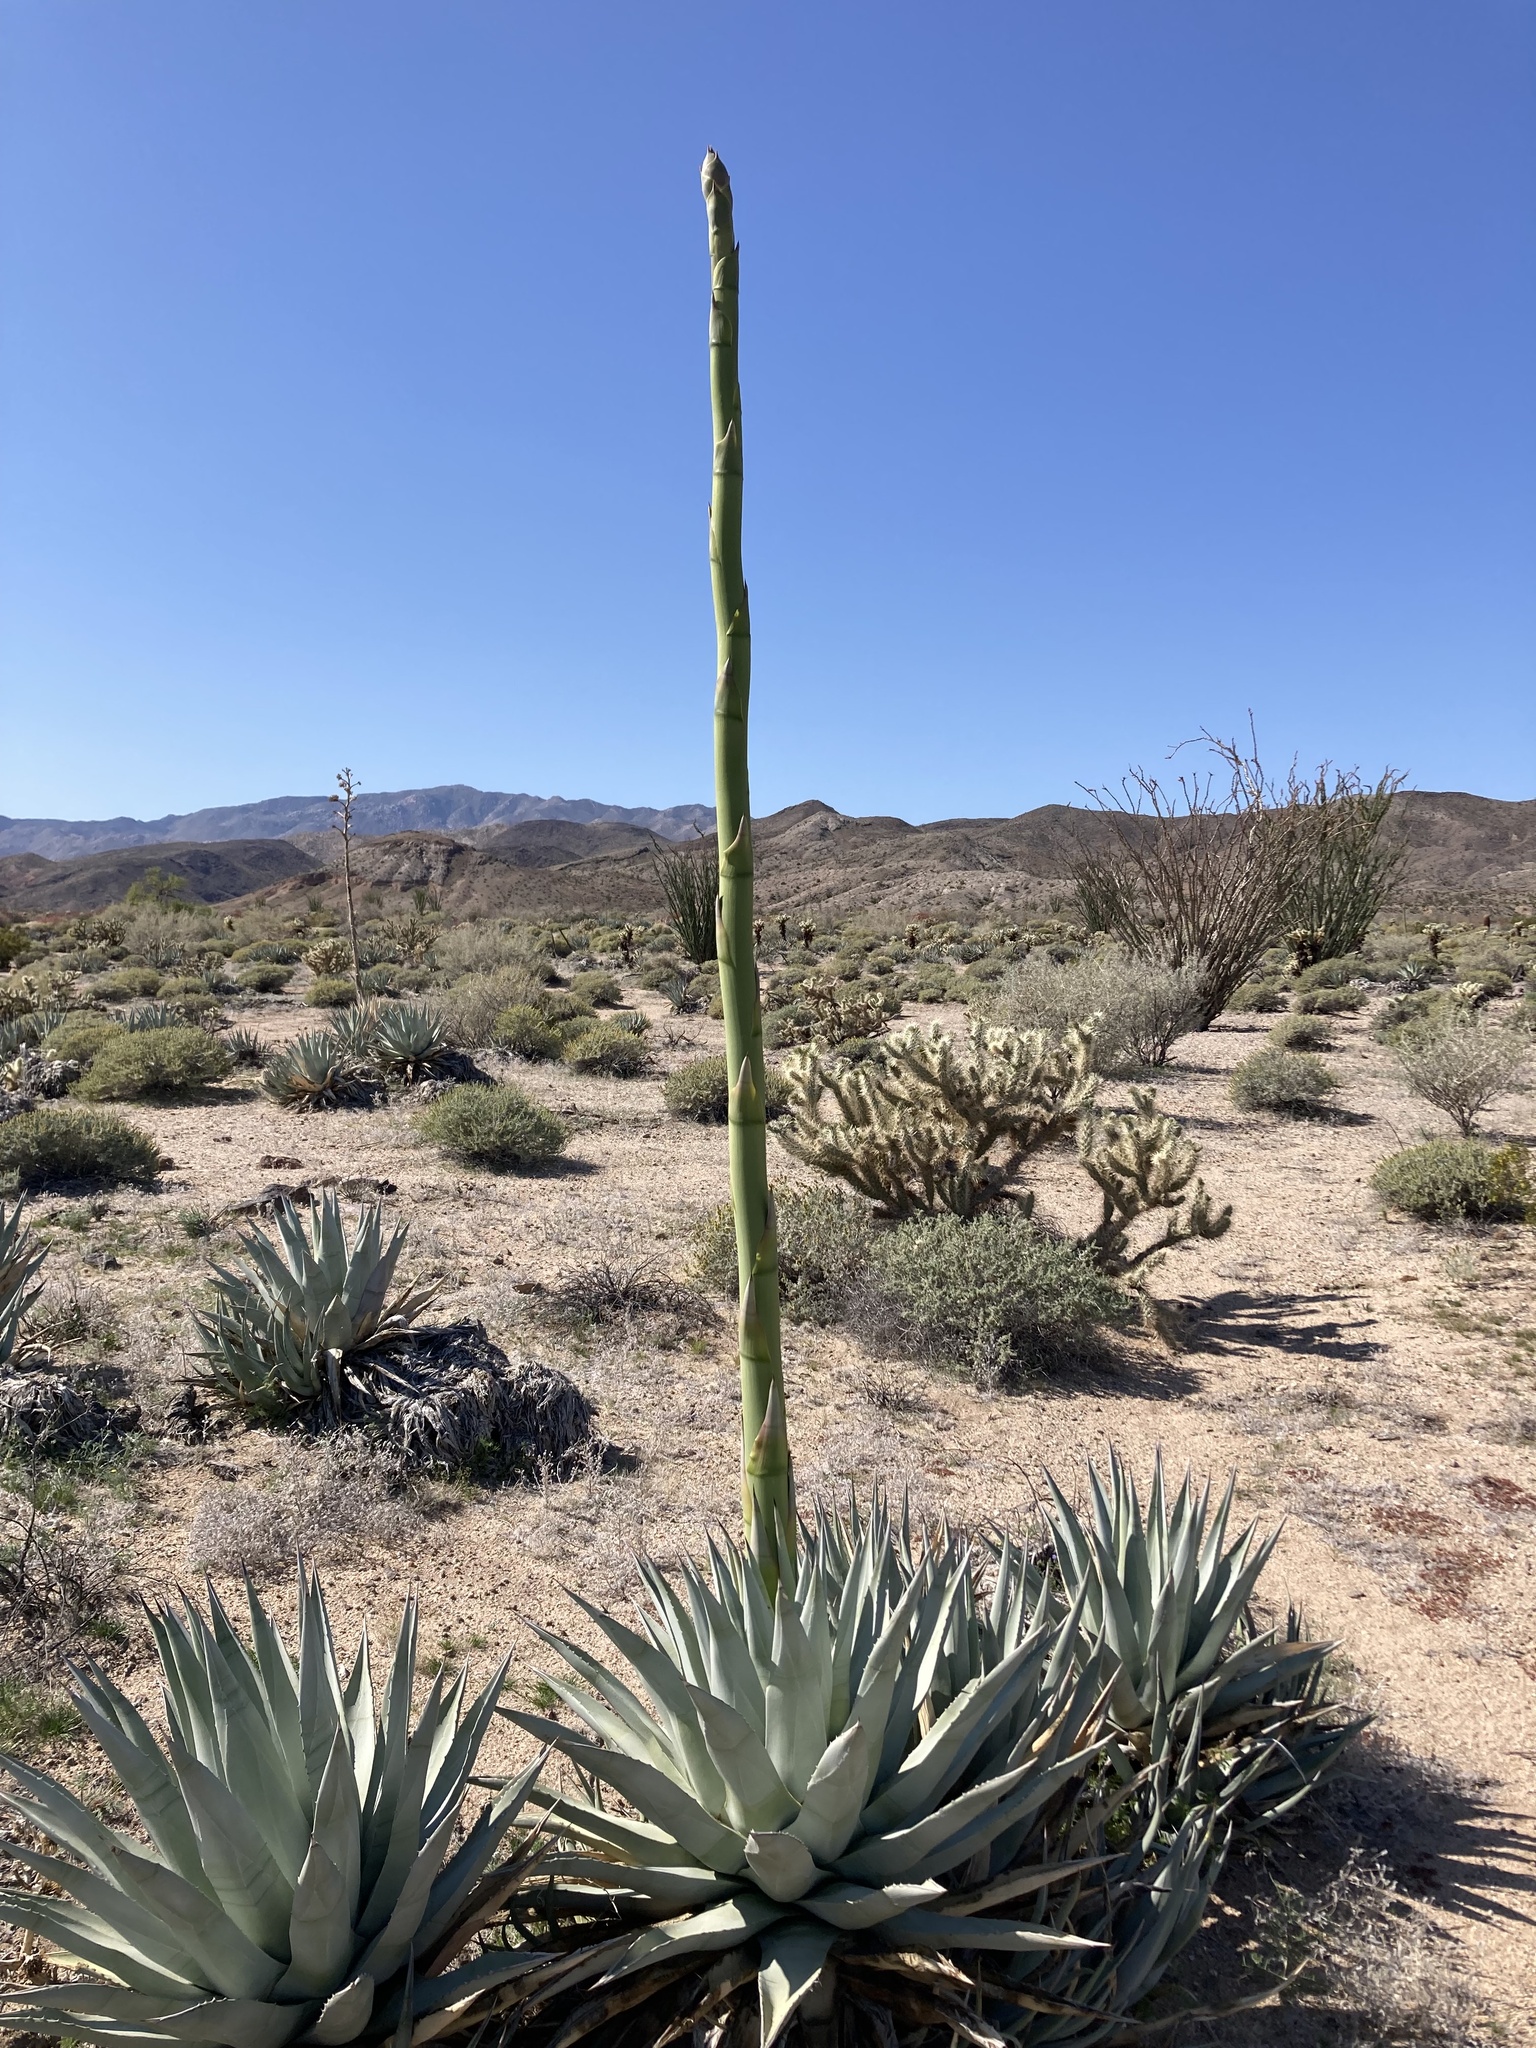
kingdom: Plantae
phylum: Tracheophyta
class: Liliopsida
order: Asparagales
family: Asparagaceae
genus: Agave
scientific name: Agave deserti
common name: Desert agave
